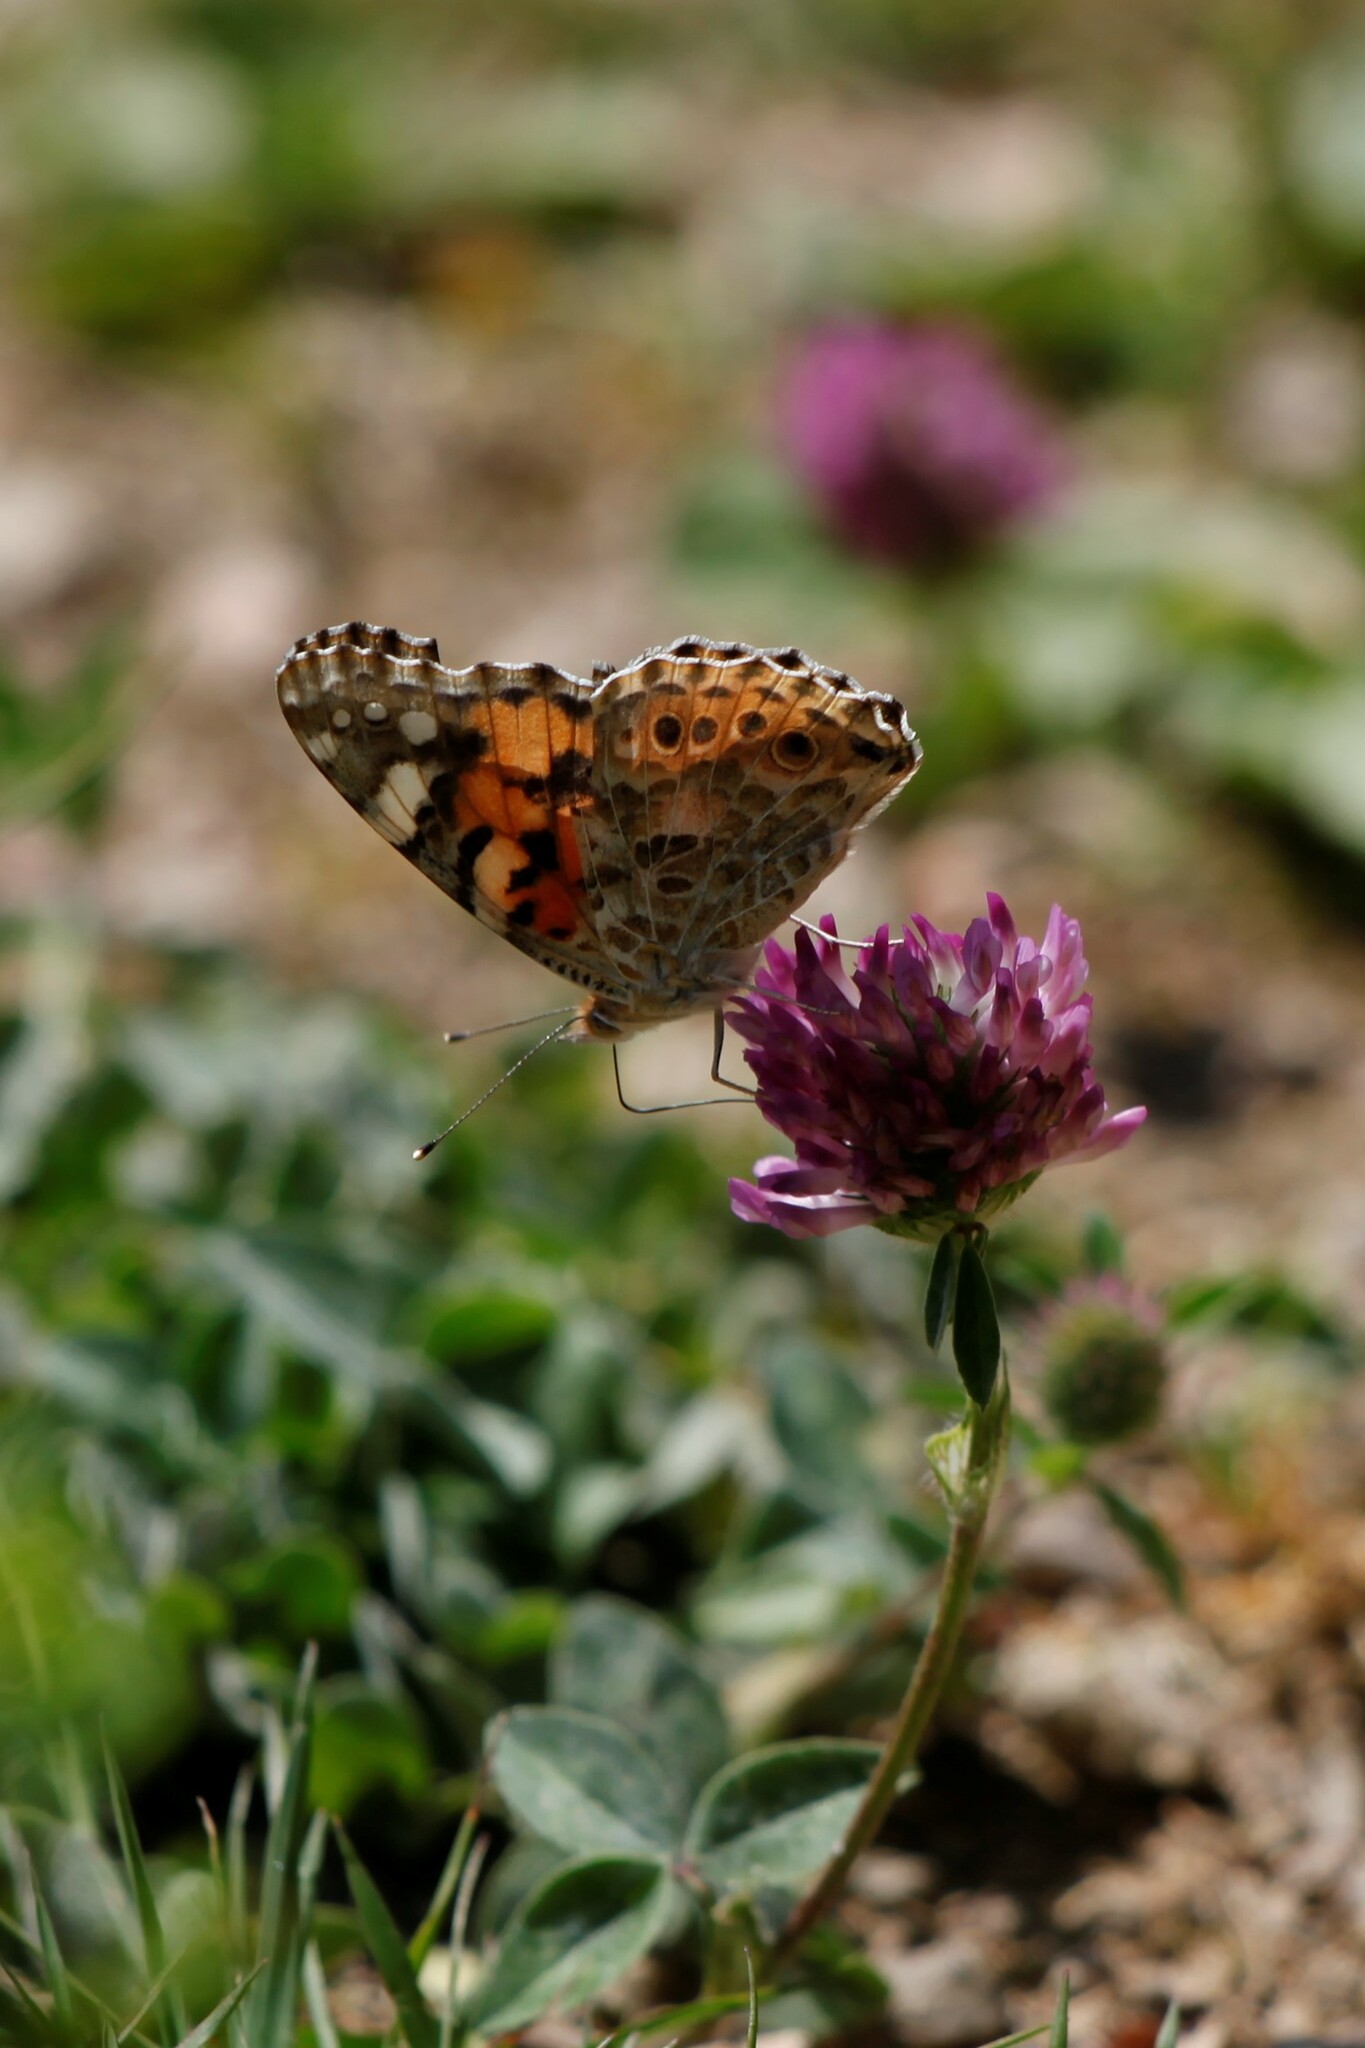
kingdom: Animalia
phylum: Arthropoda
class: Insecta
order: Lepidoptera
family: Nymphalidae
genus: Vanessa
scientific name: Vanessa cardui
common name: Painted lady
